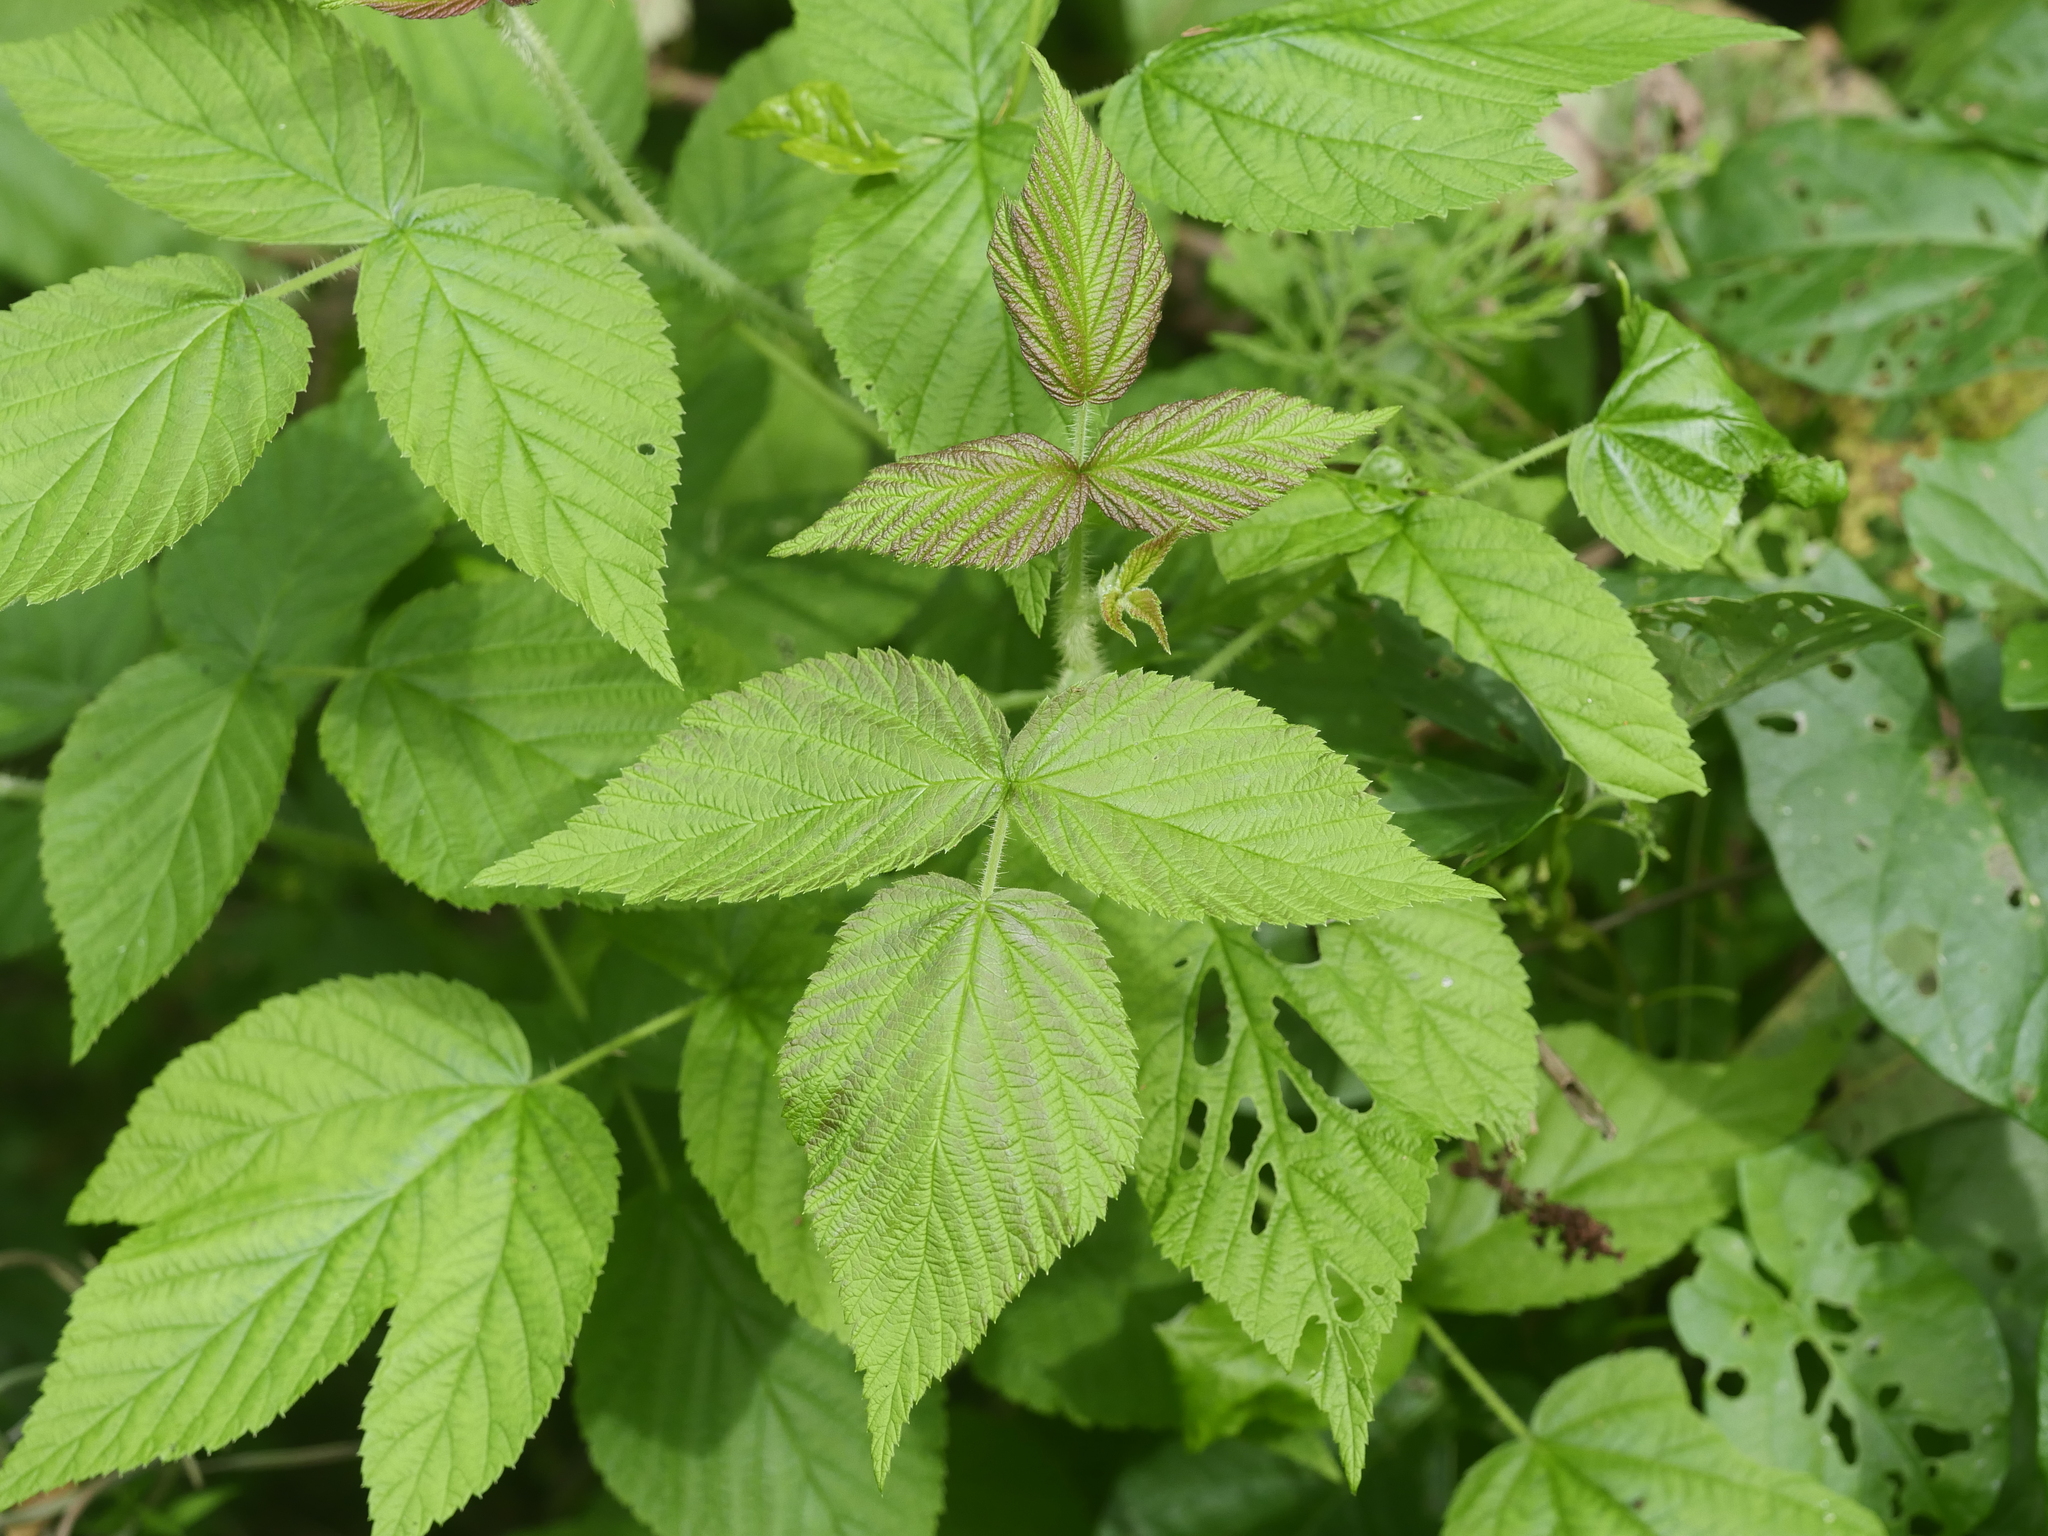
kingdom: Plantae
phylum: Tracheophyta
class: Magnoliopsida
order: Rosales
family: Rosaceae
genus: Rubus
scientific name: Rubus idaeus
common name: Raspberry
